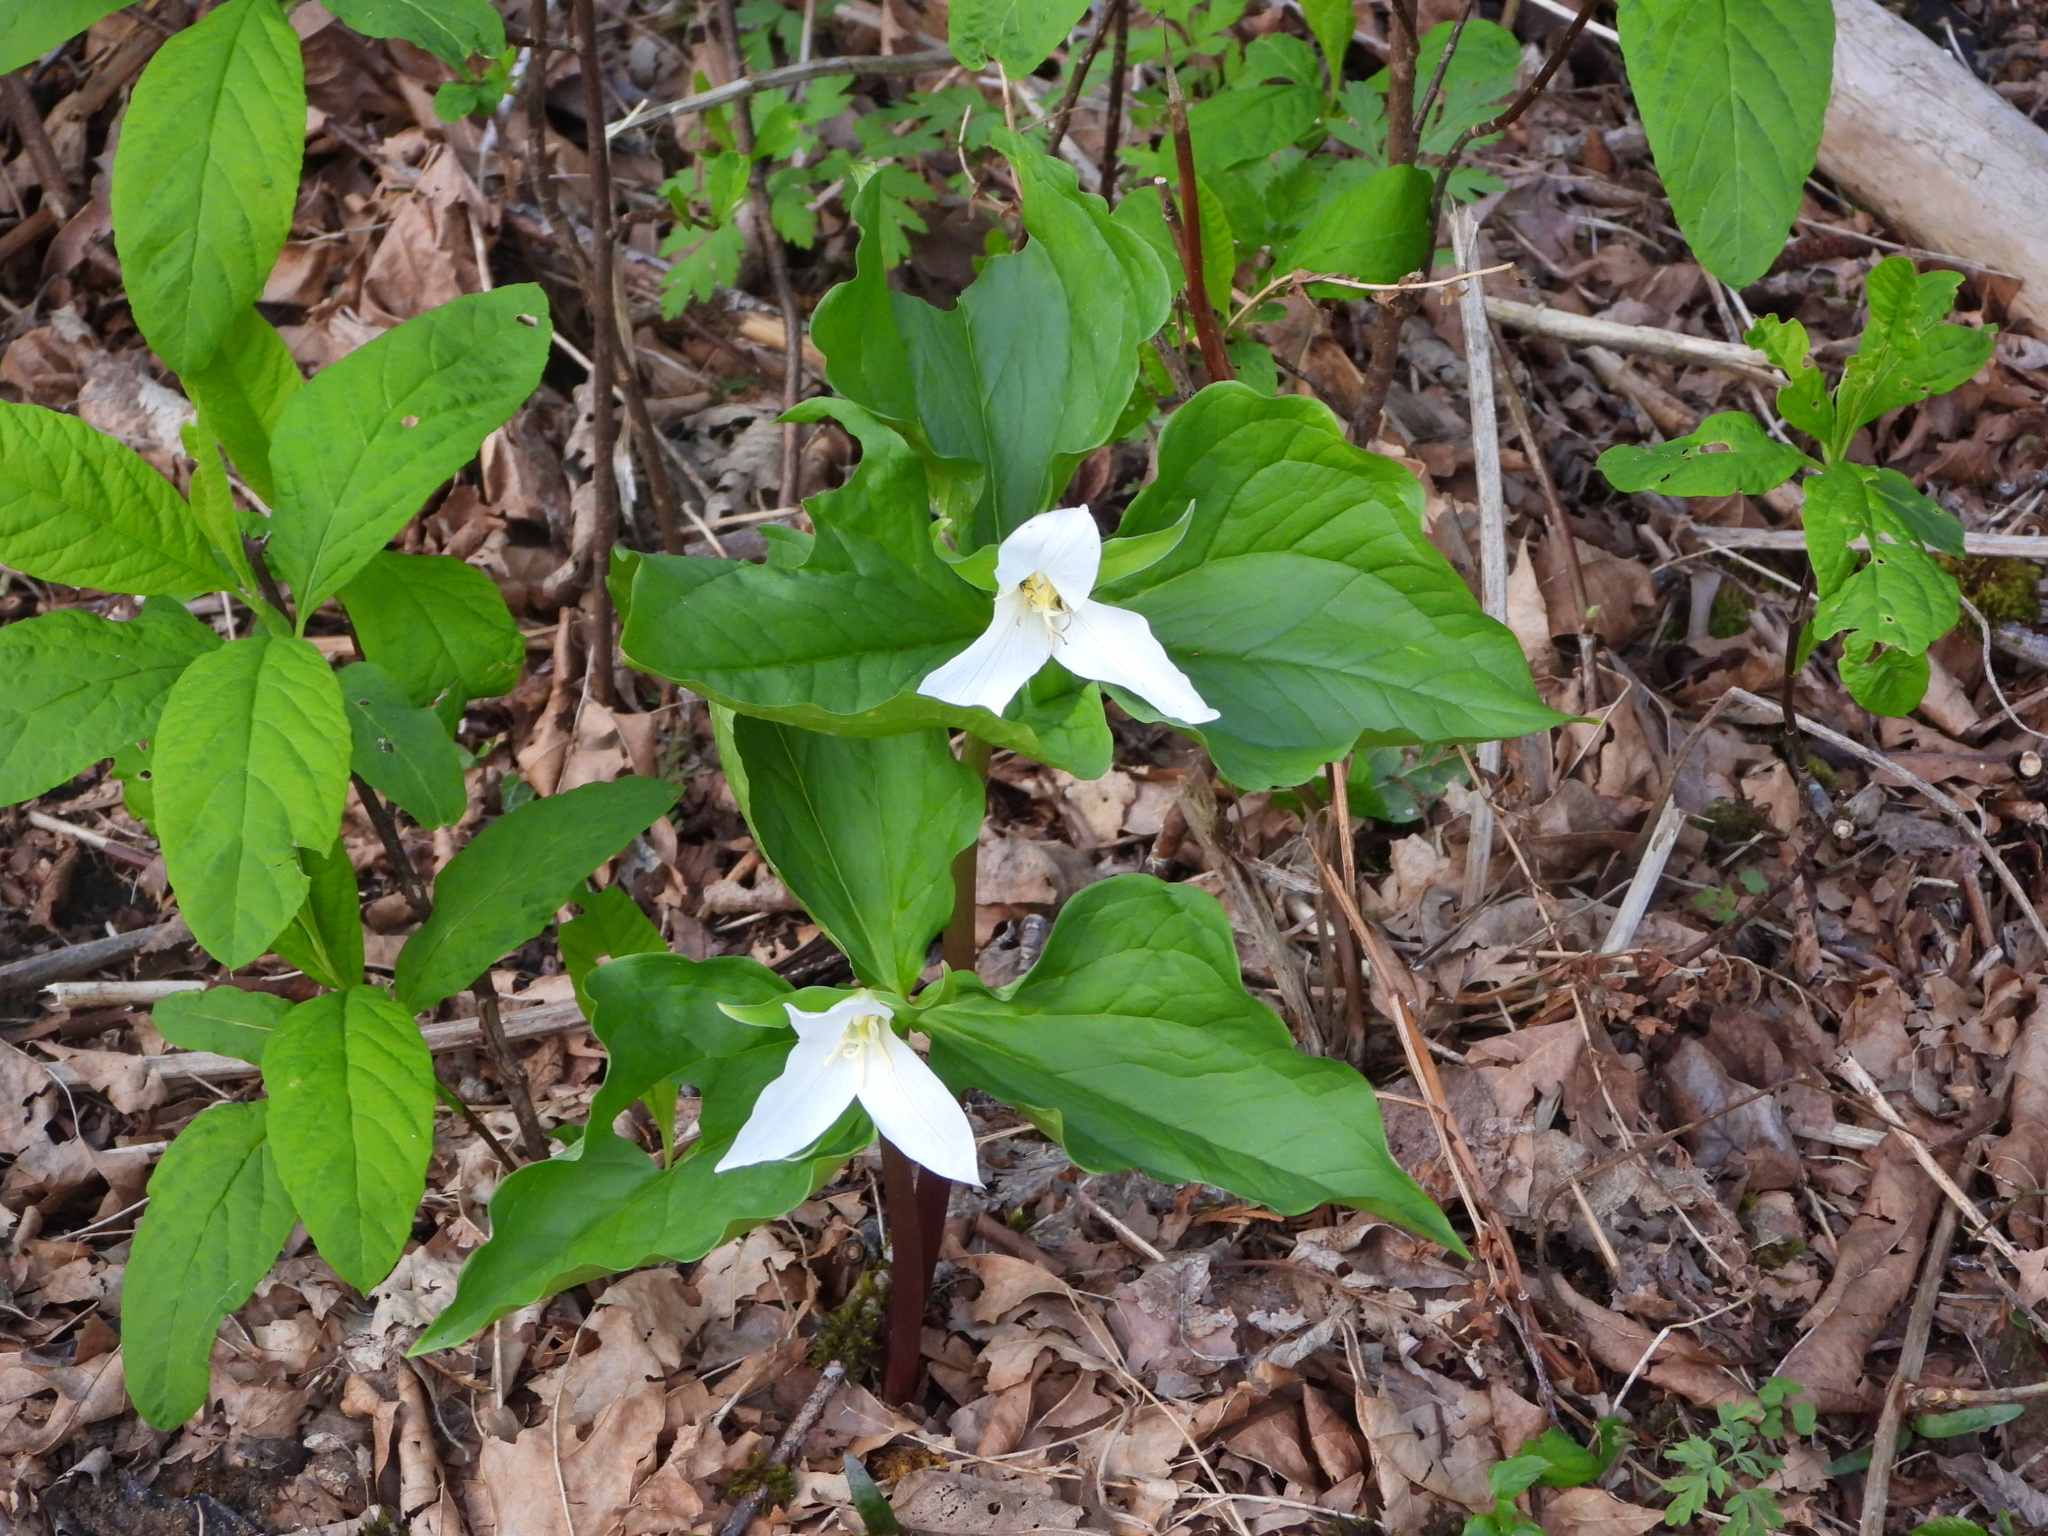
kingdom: Plantae
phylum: Tracheophyta
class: Liliopsida
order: Liliales
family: Melanthiaceae
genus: Trillium
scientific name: Trillium ovatum
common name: Pacific trillium
